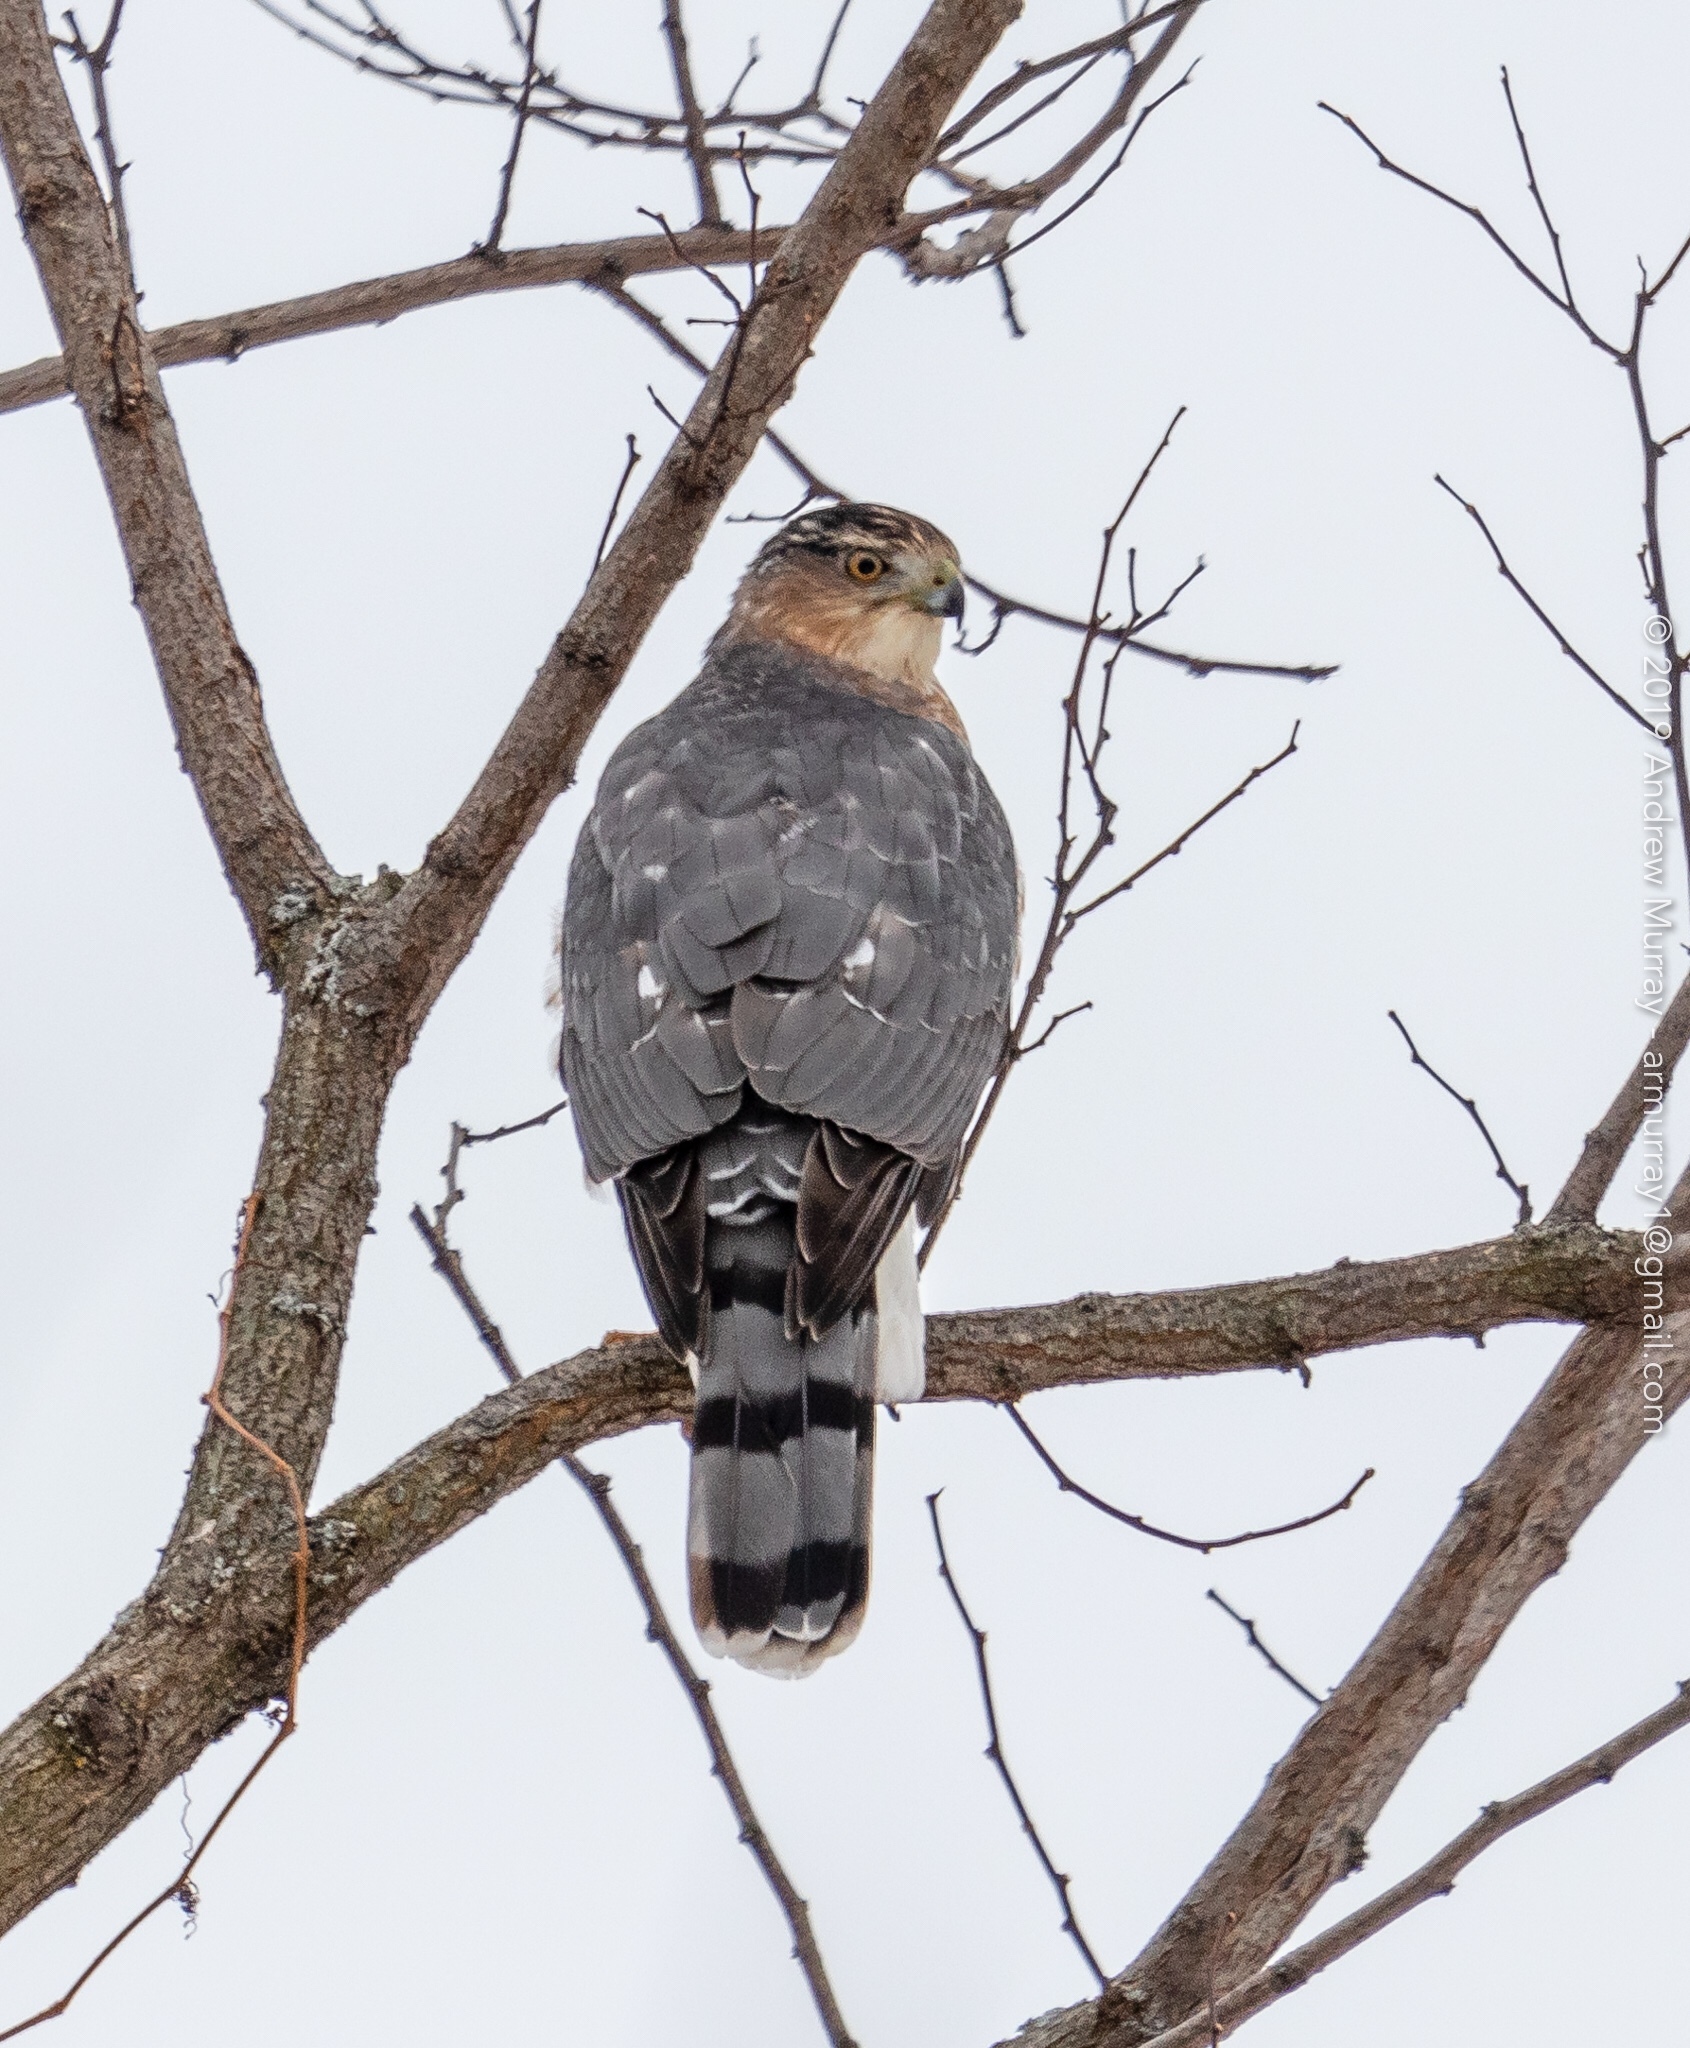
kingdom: Animalia
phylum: Chordata
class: Aves
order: Accipitriformes
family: Accipitridae
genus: Accipiter
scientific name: Accipiter cooperii
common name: Cooper's hawk
